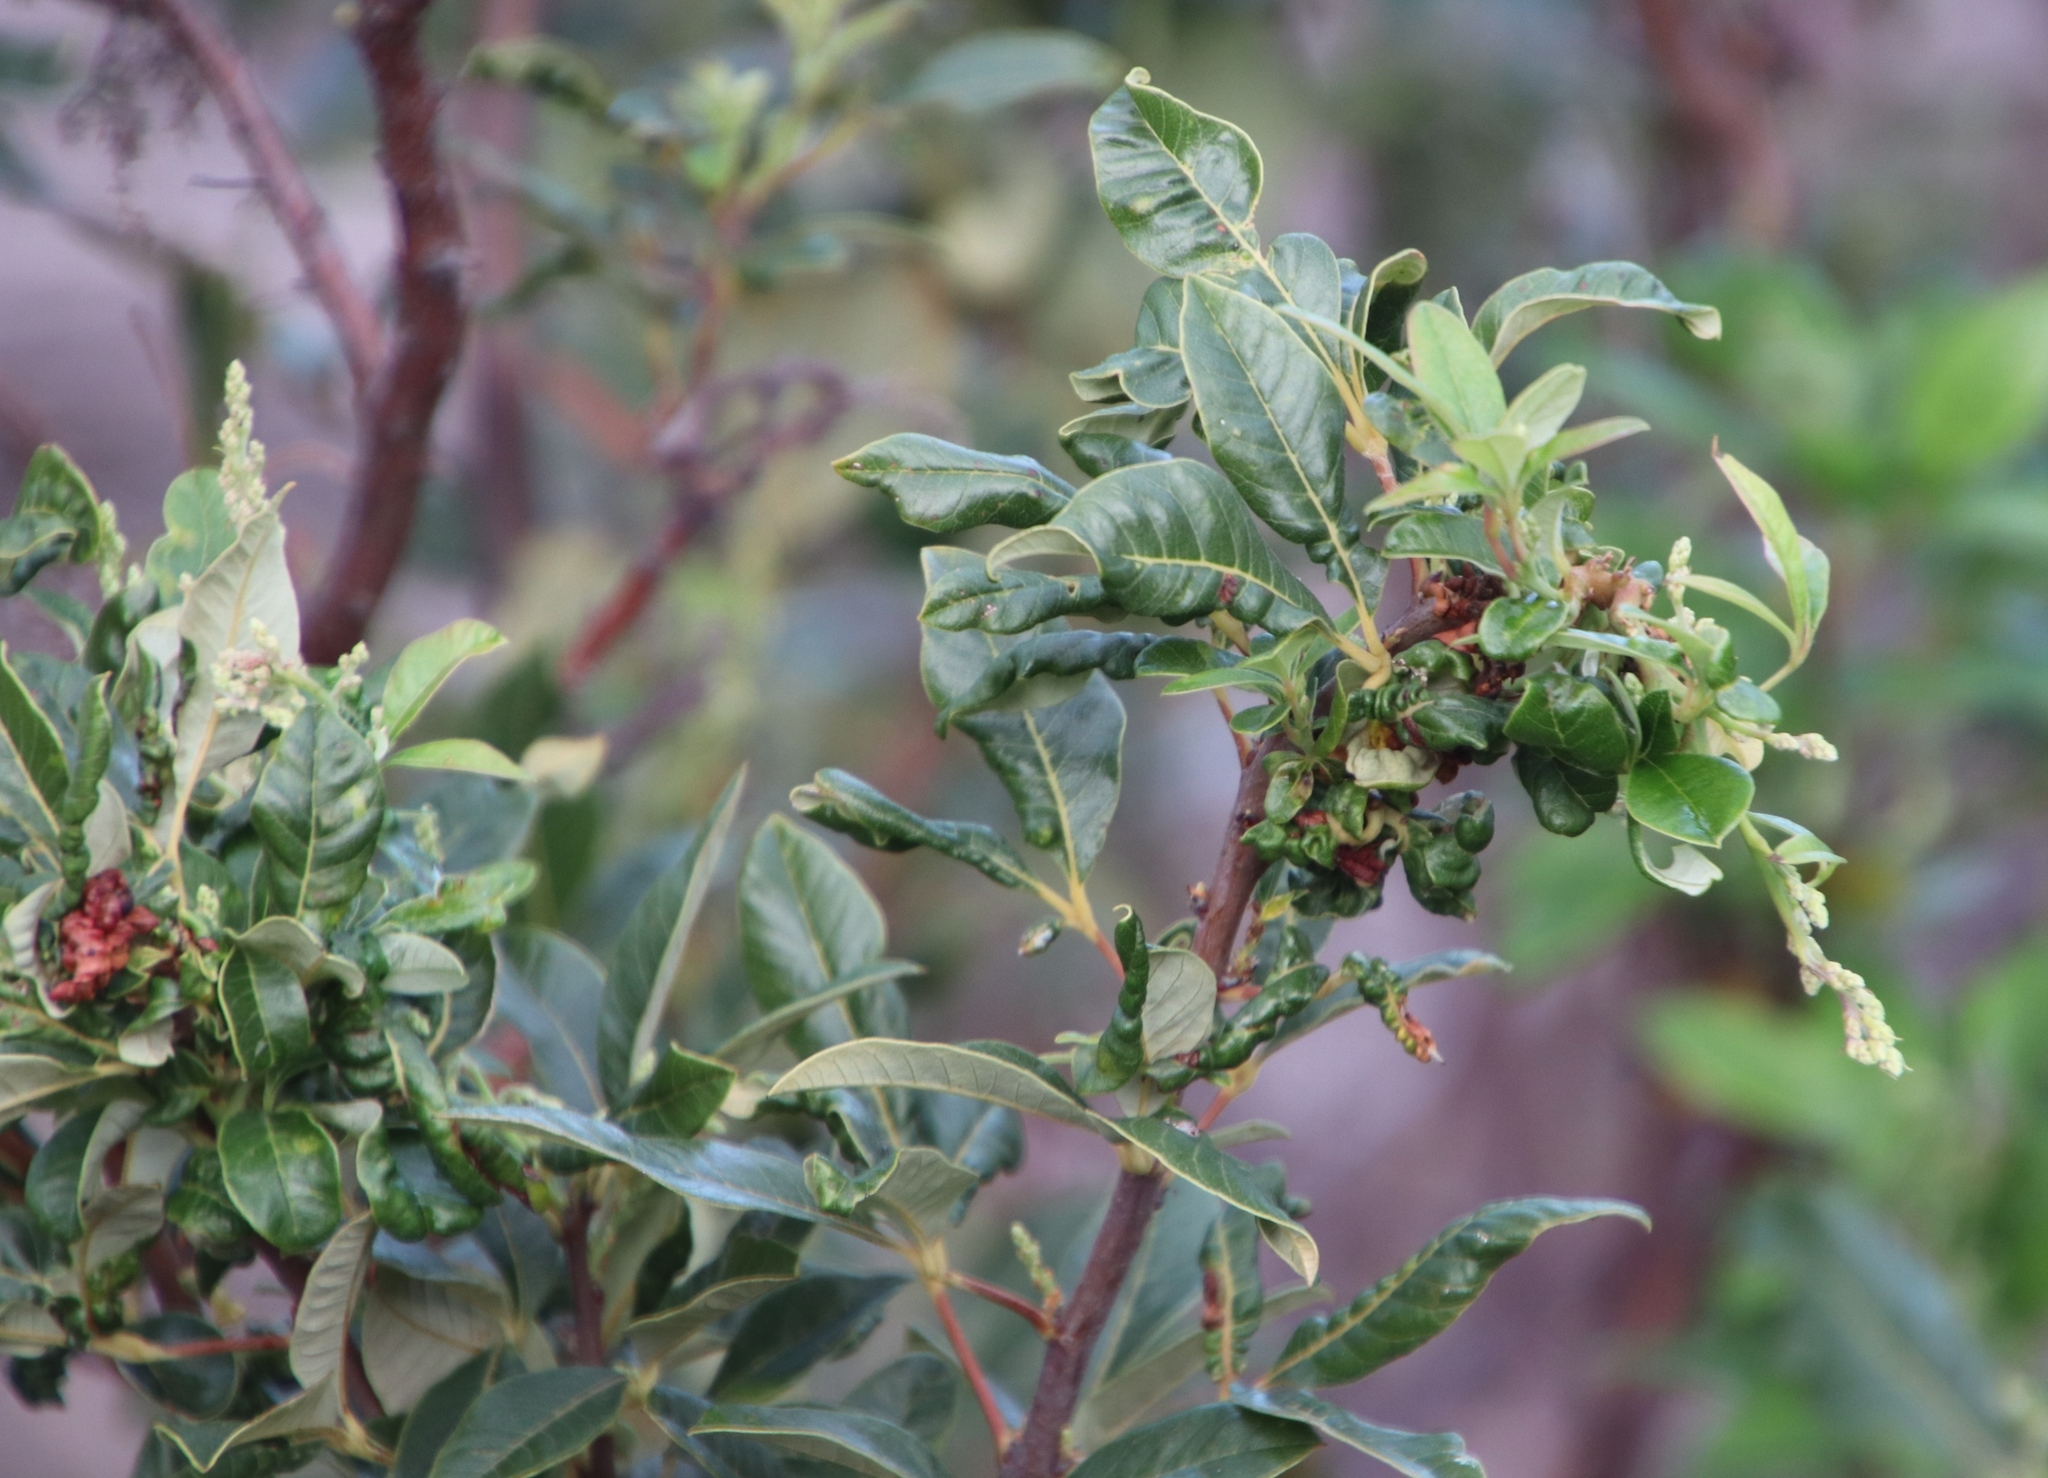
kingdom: Plantae
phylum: Tracheophyta
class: Magnoliopsida
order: Sapindales
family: Anacardiaceae
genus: Searsia
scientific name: Searsia tomentosa
